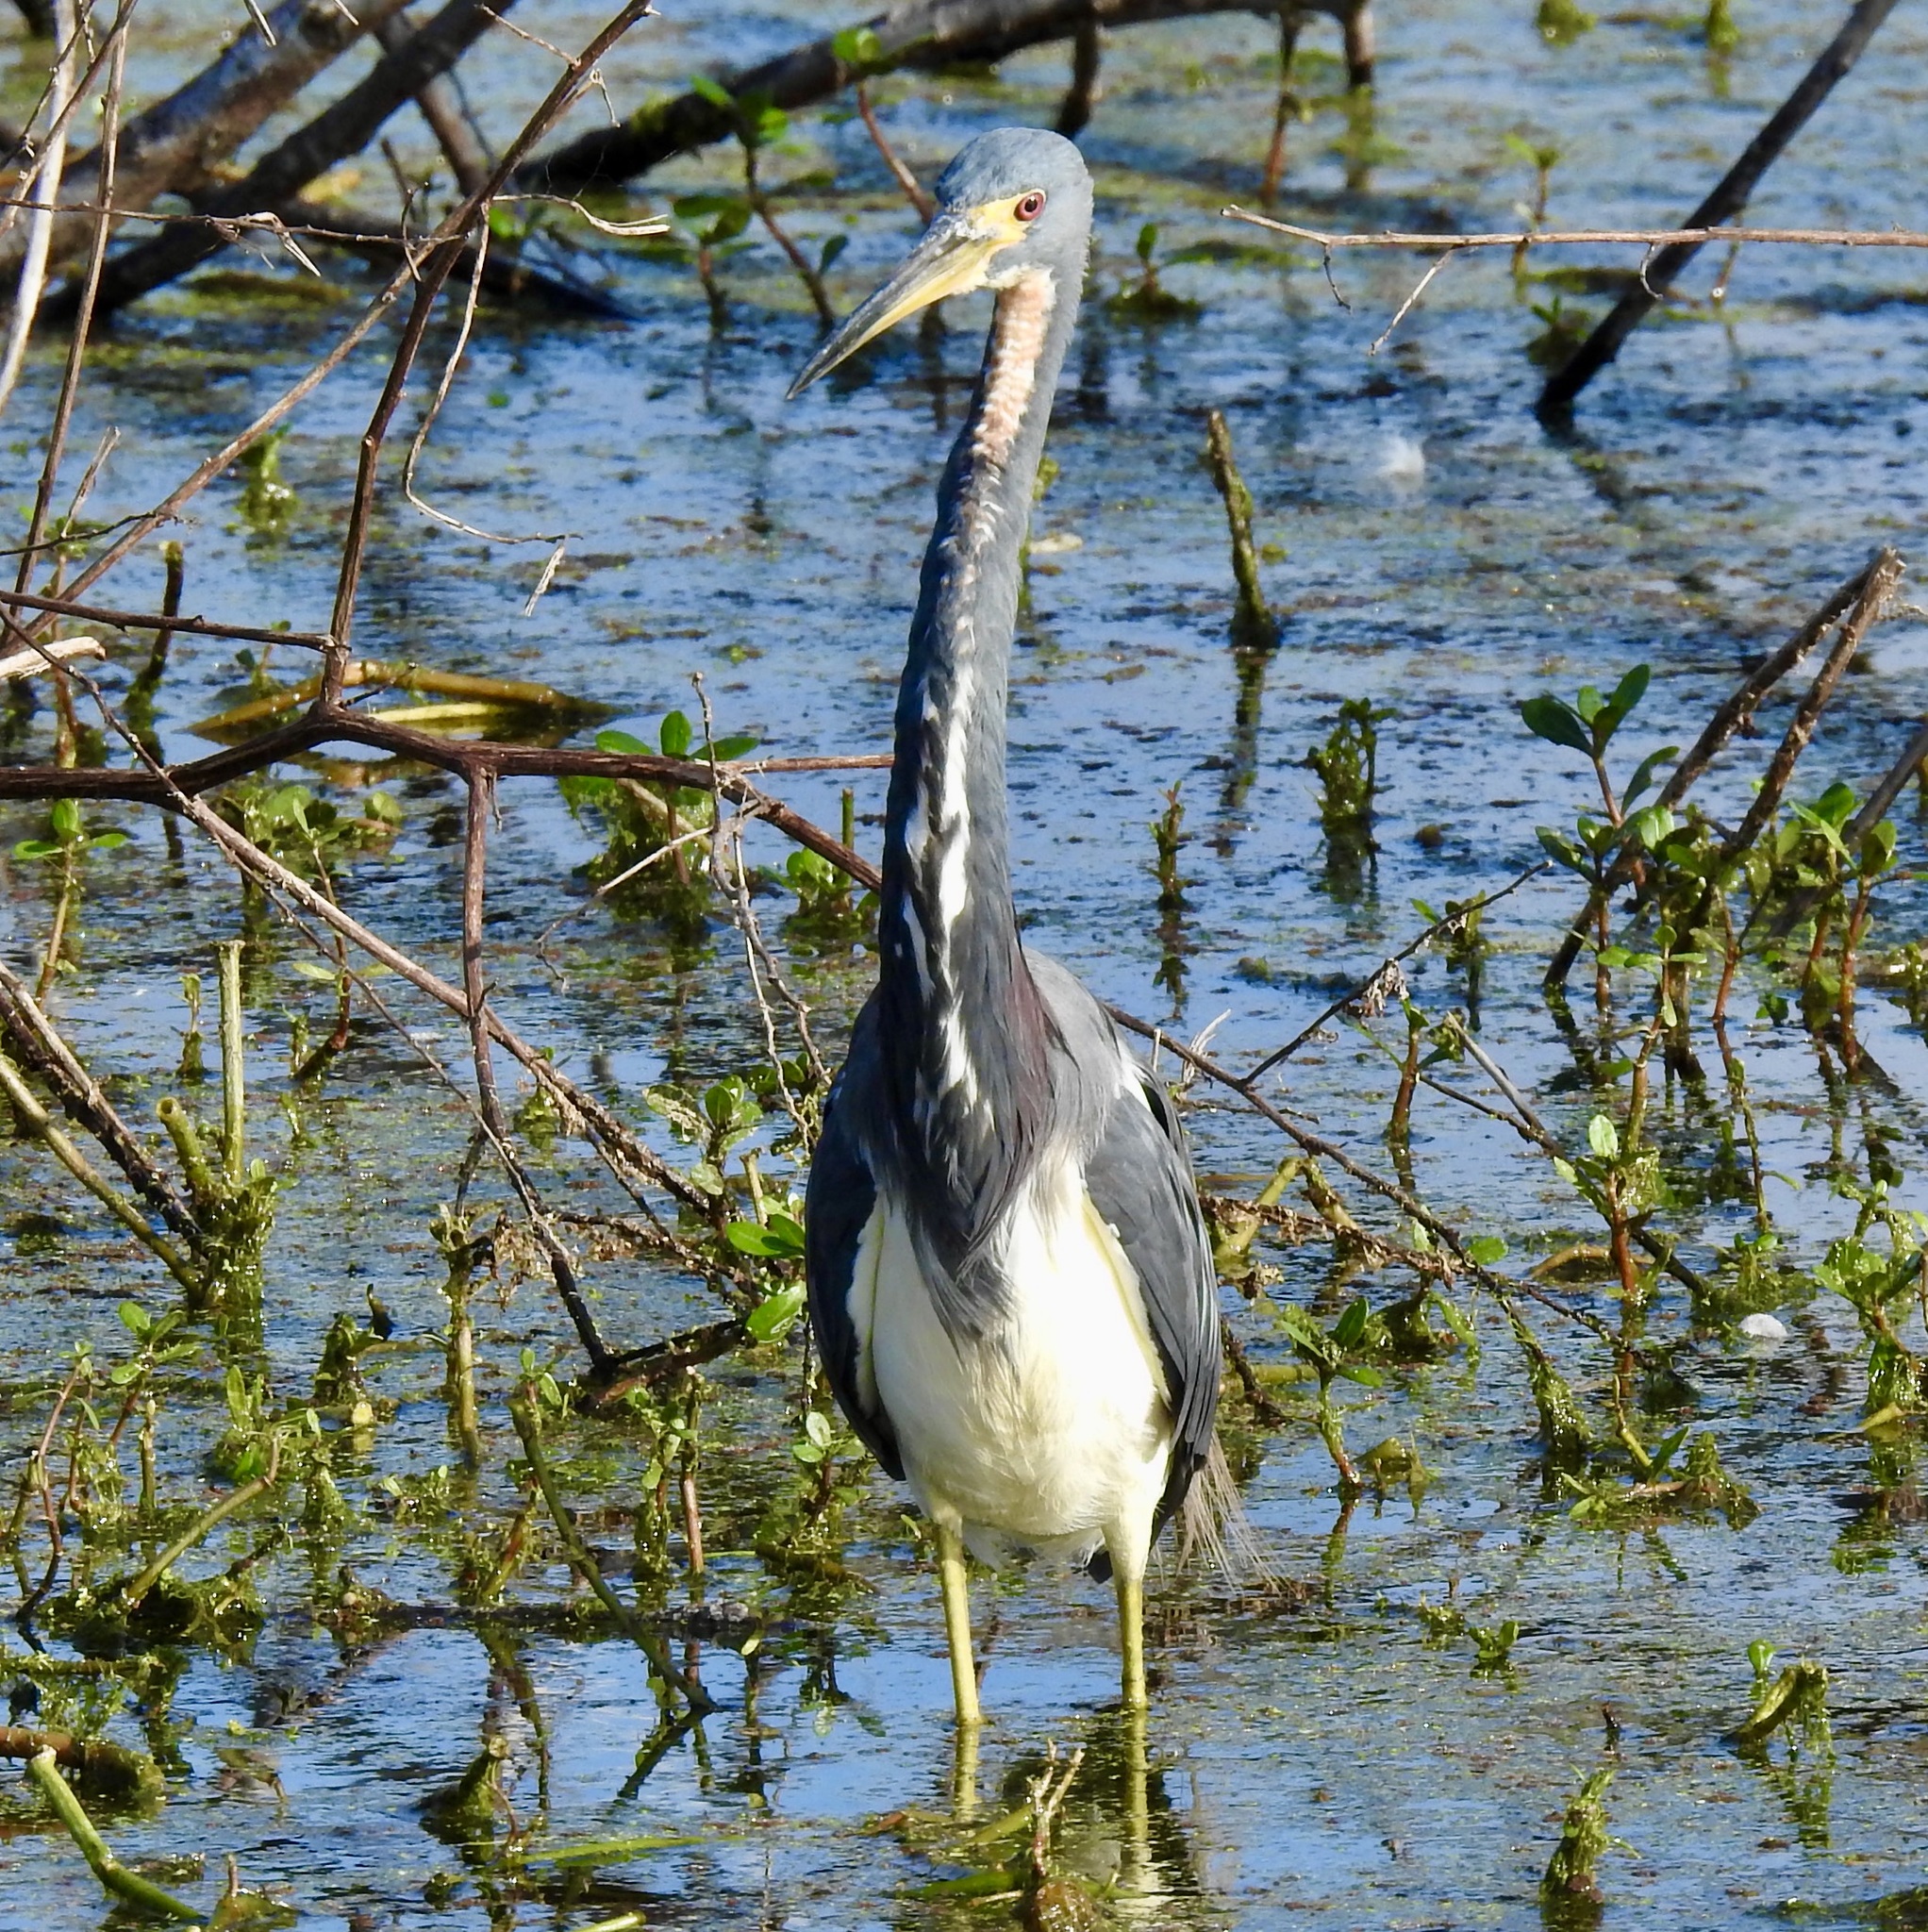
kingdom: Animalia
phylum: Chordata
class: Aves
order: Pelecaniformes
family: Ardeidae
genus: Egretta
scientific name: Egretta tricolor
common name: Tricolored heron
